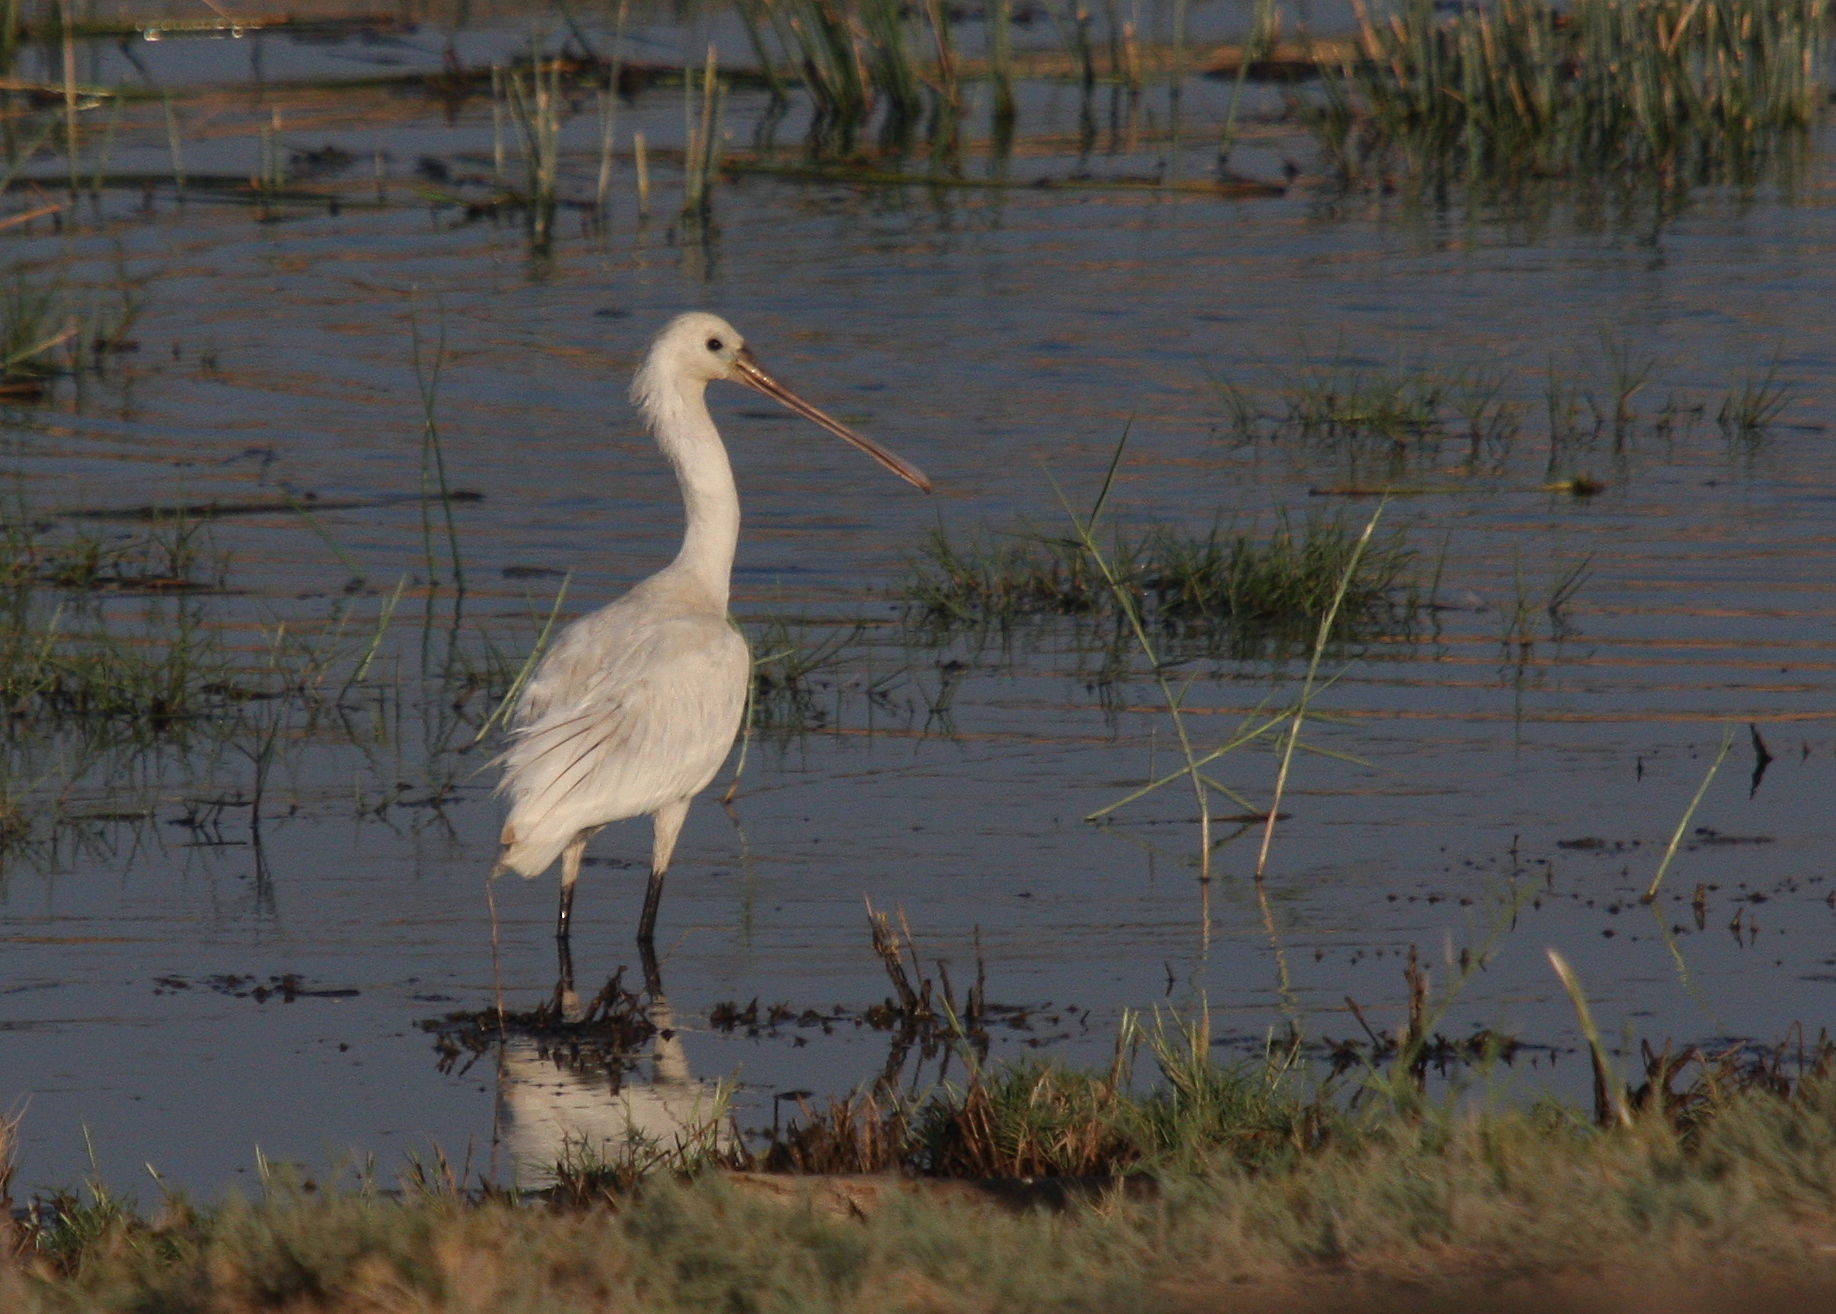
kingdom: Animalia
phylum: Chordata
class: Aves
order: Pelecaniformes
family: Threskiornithidae
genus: Platalea
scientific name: Platalea leucorodia
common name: Eurasian spoonbill
